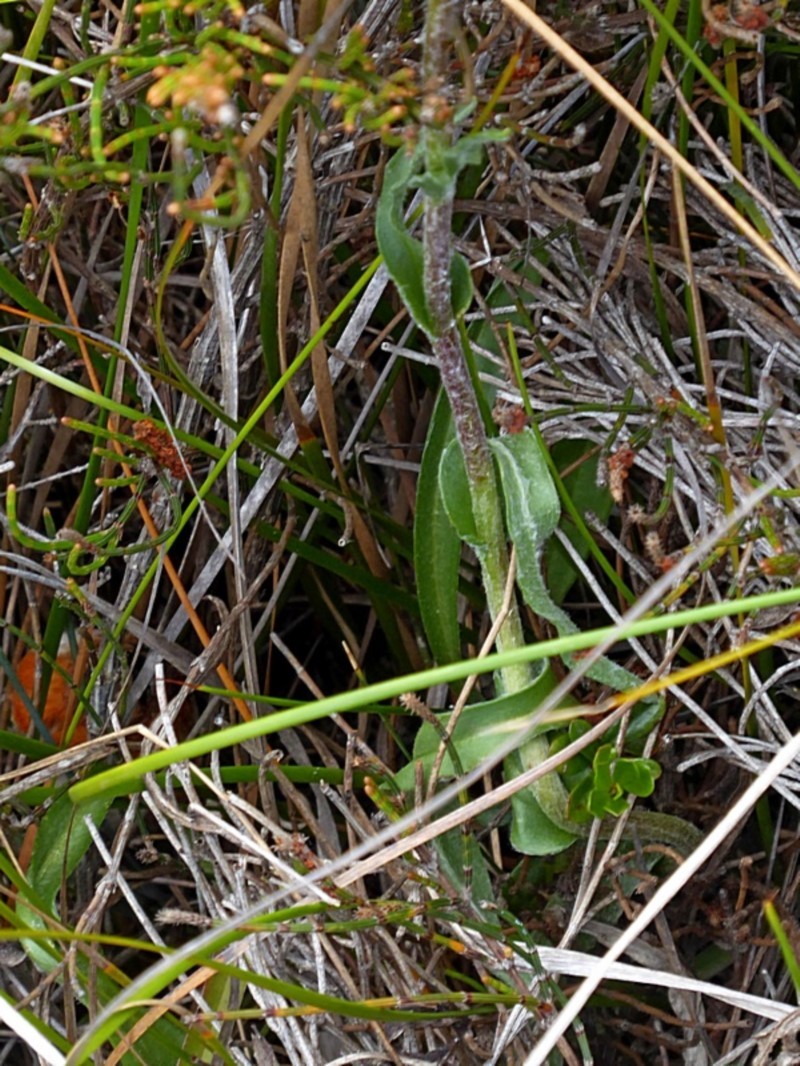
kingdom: Plantae
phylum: Tracheophyta
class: Magnoliopsida
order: Asterales
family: Asteraceae
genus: Craspedia
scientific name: Craspedia canens
